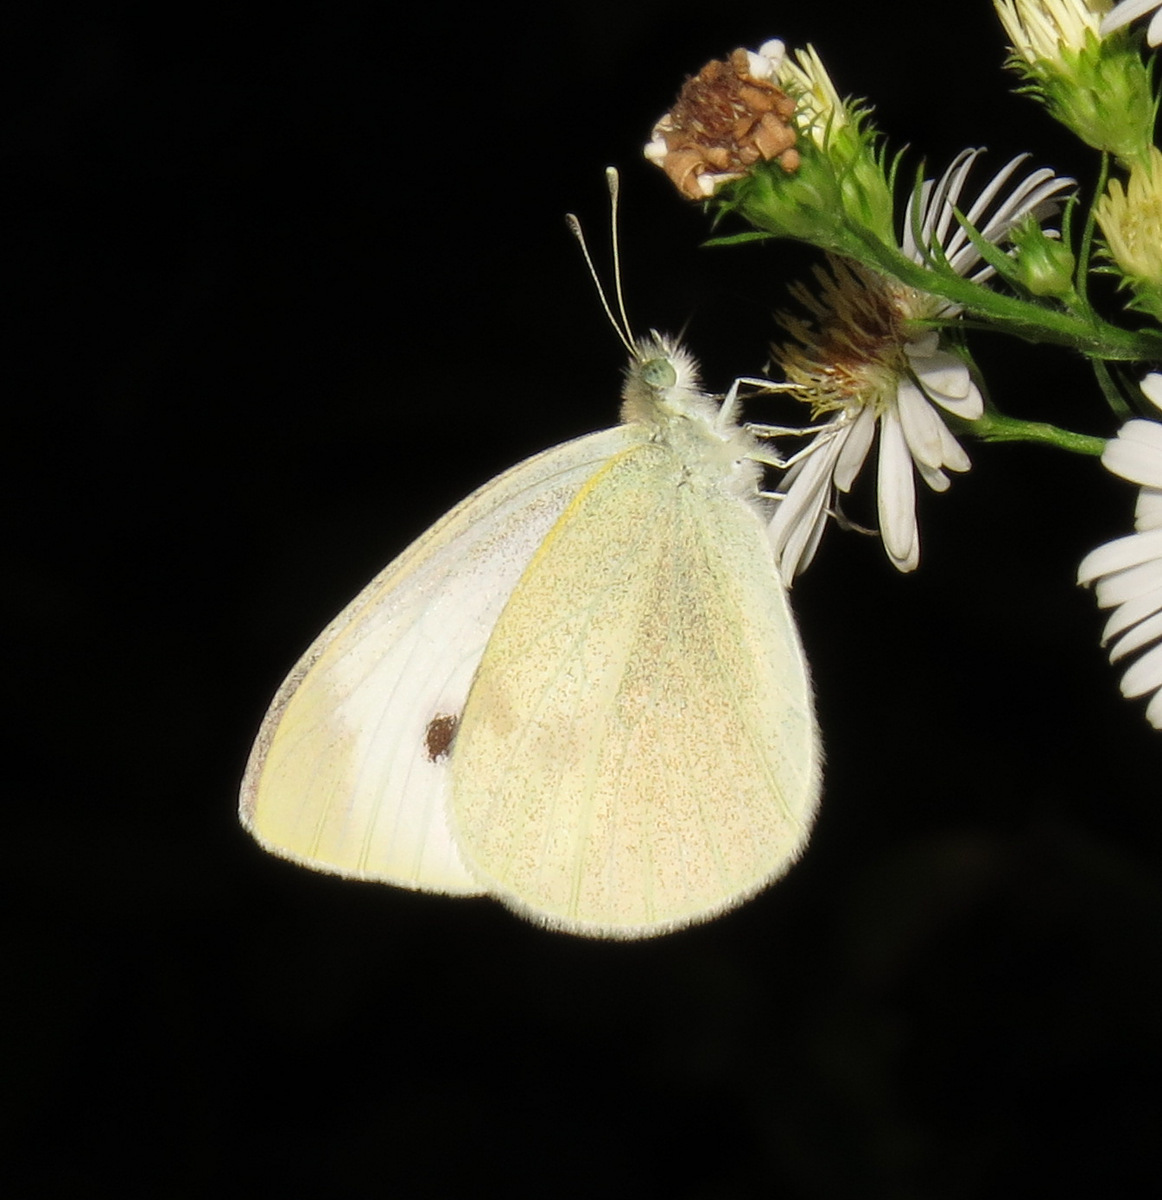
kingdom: Animalia
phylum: Arthropoda
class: Insecta
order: Lepidoptera
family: Pieridae
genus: Pieris
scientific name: Pieris rapae
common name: Small white
